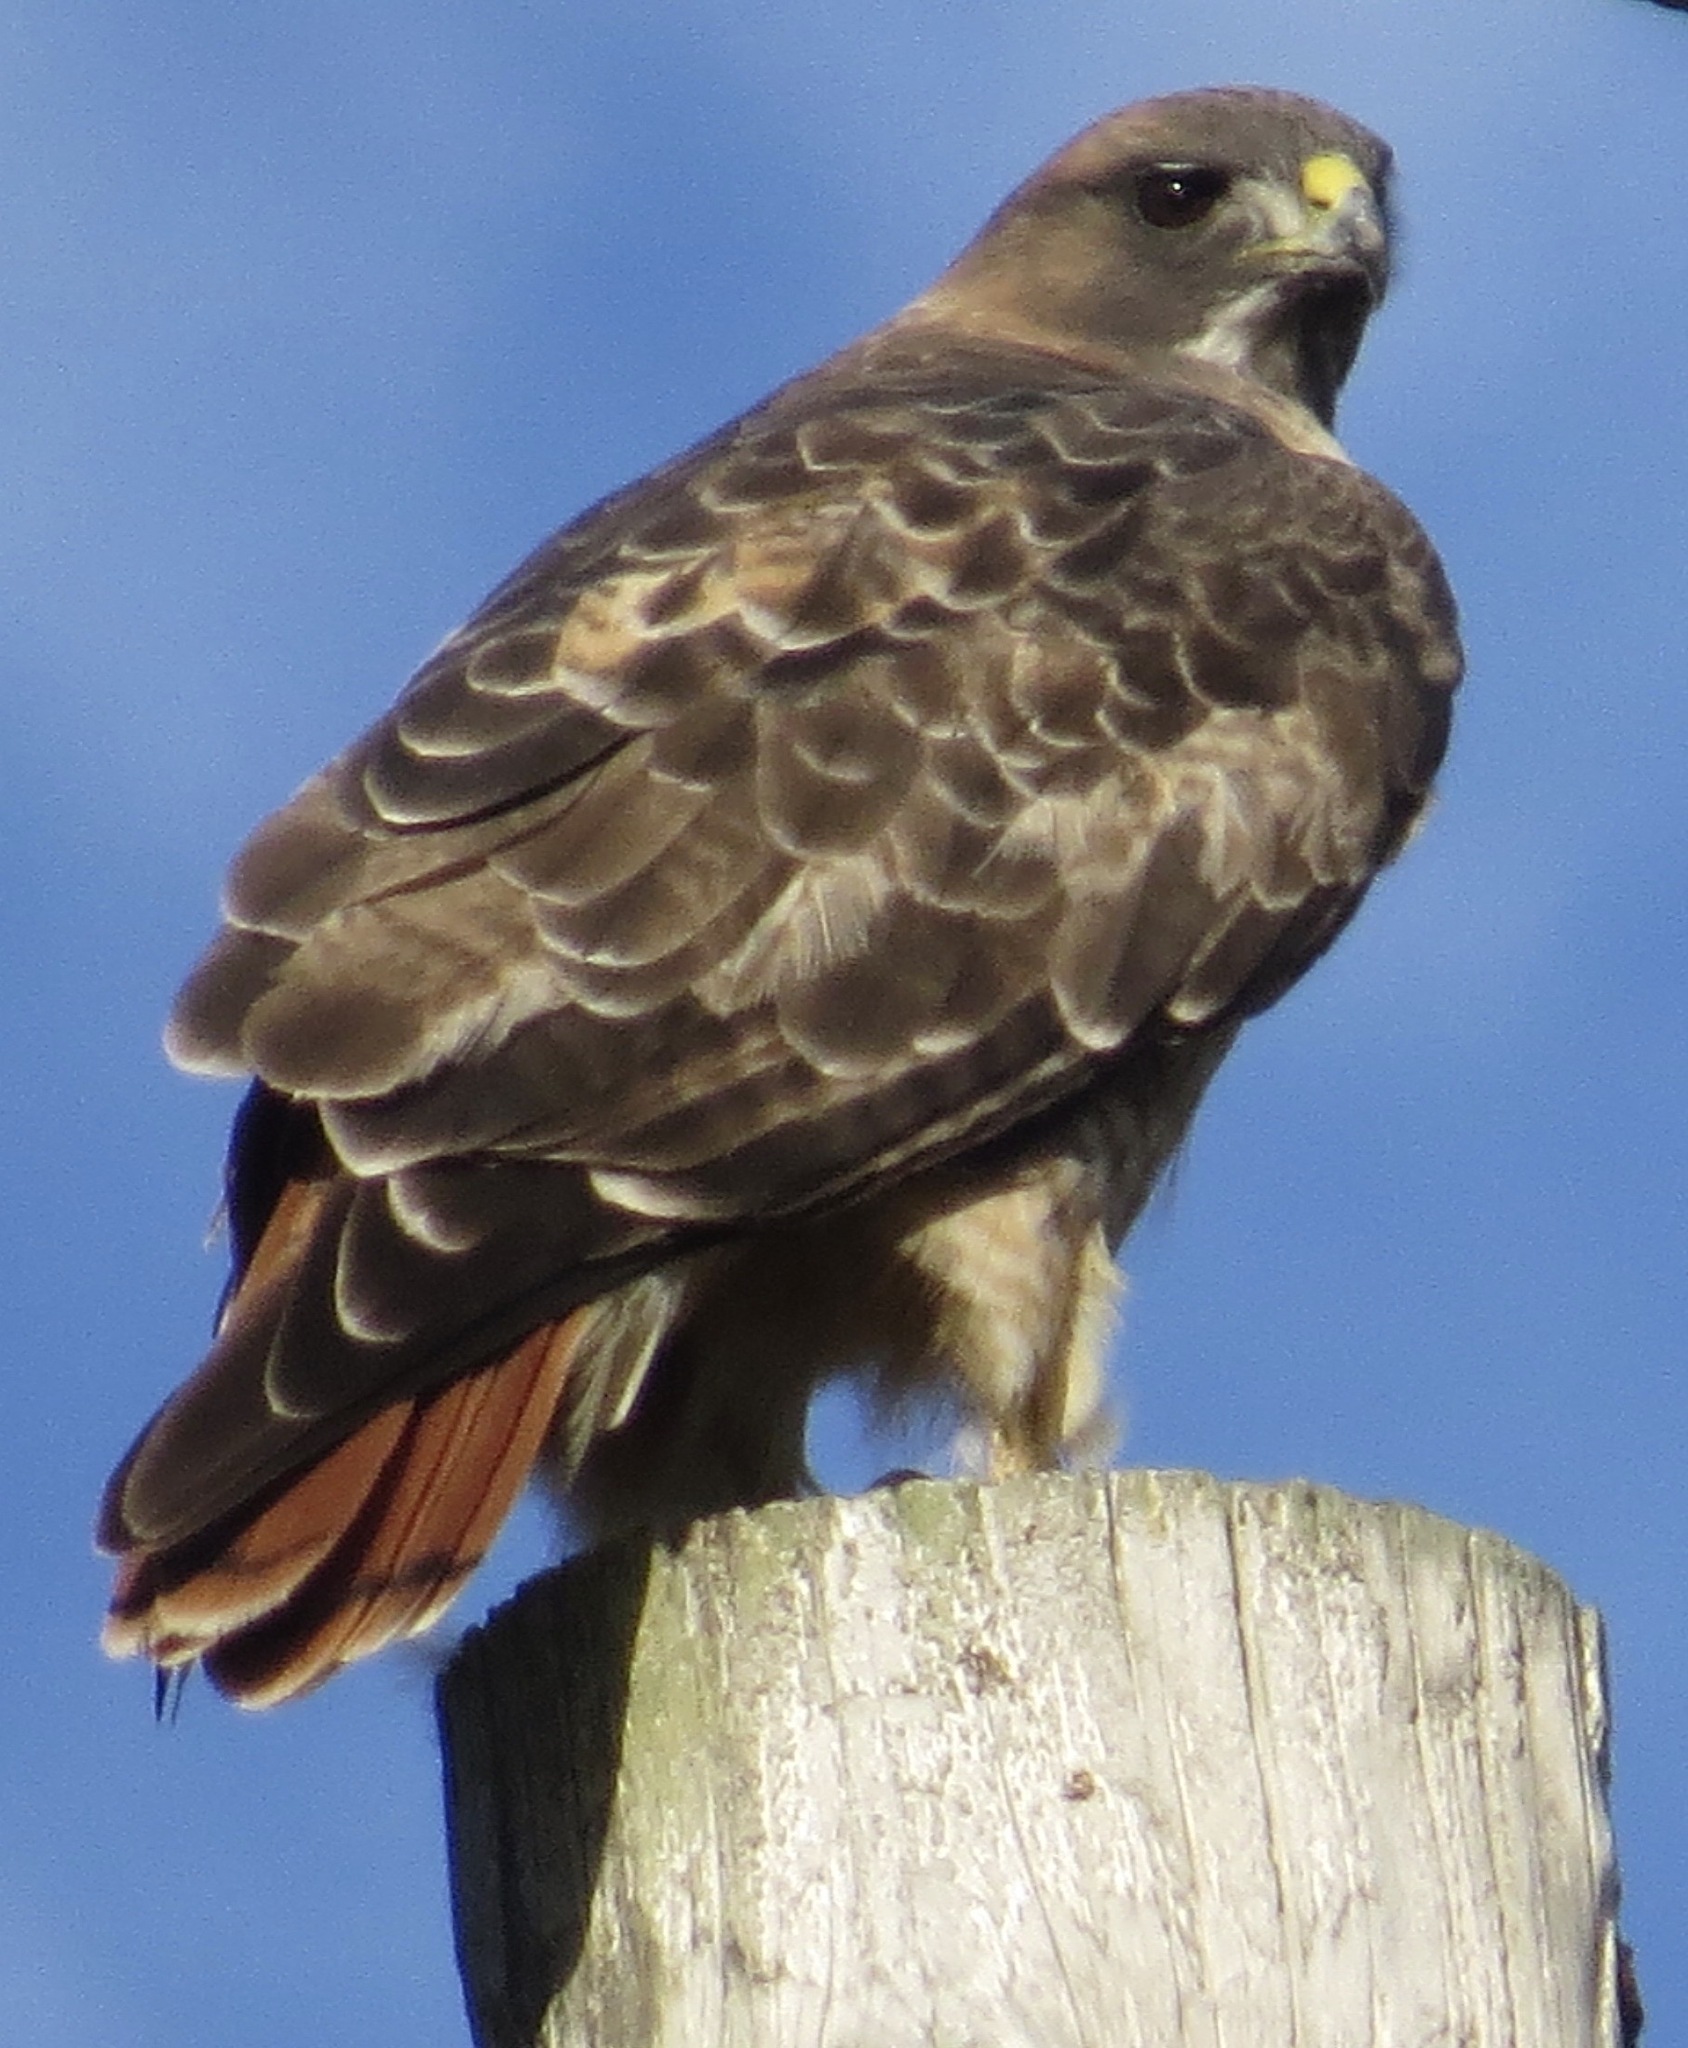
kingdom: Animalia
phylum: Chordata
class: Aves
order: Accipitriformes
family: Accipitridae
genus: Buteo
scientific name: Buteo jamaicensis
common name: Red-tailed hawk
